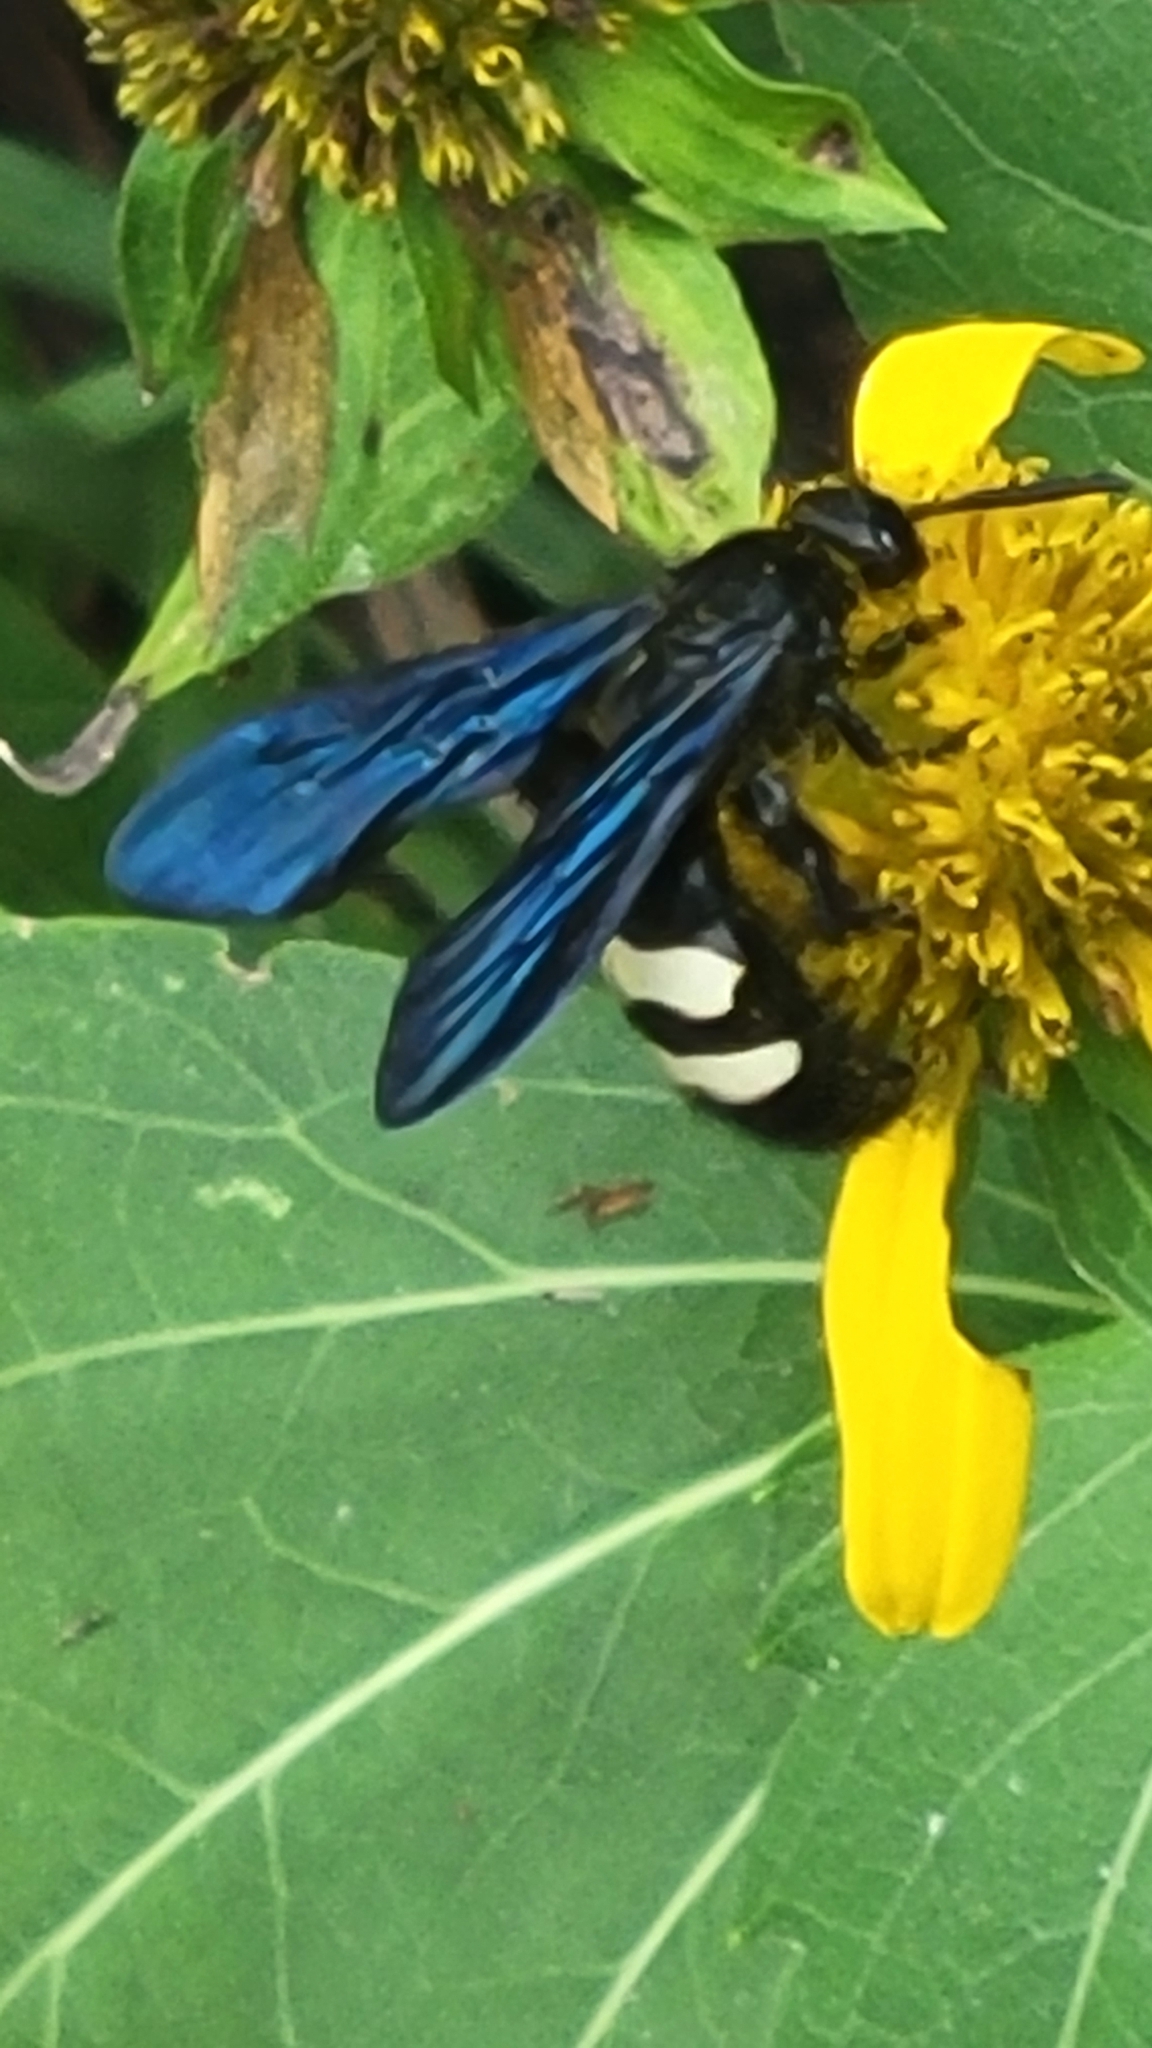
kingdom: Animalia
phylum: Arthropoda
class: Insecta
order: Hymenoptera
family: Scoliidae
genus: Scolia
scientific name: Scolia bicincta
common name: Double-banded scoliid wasp
